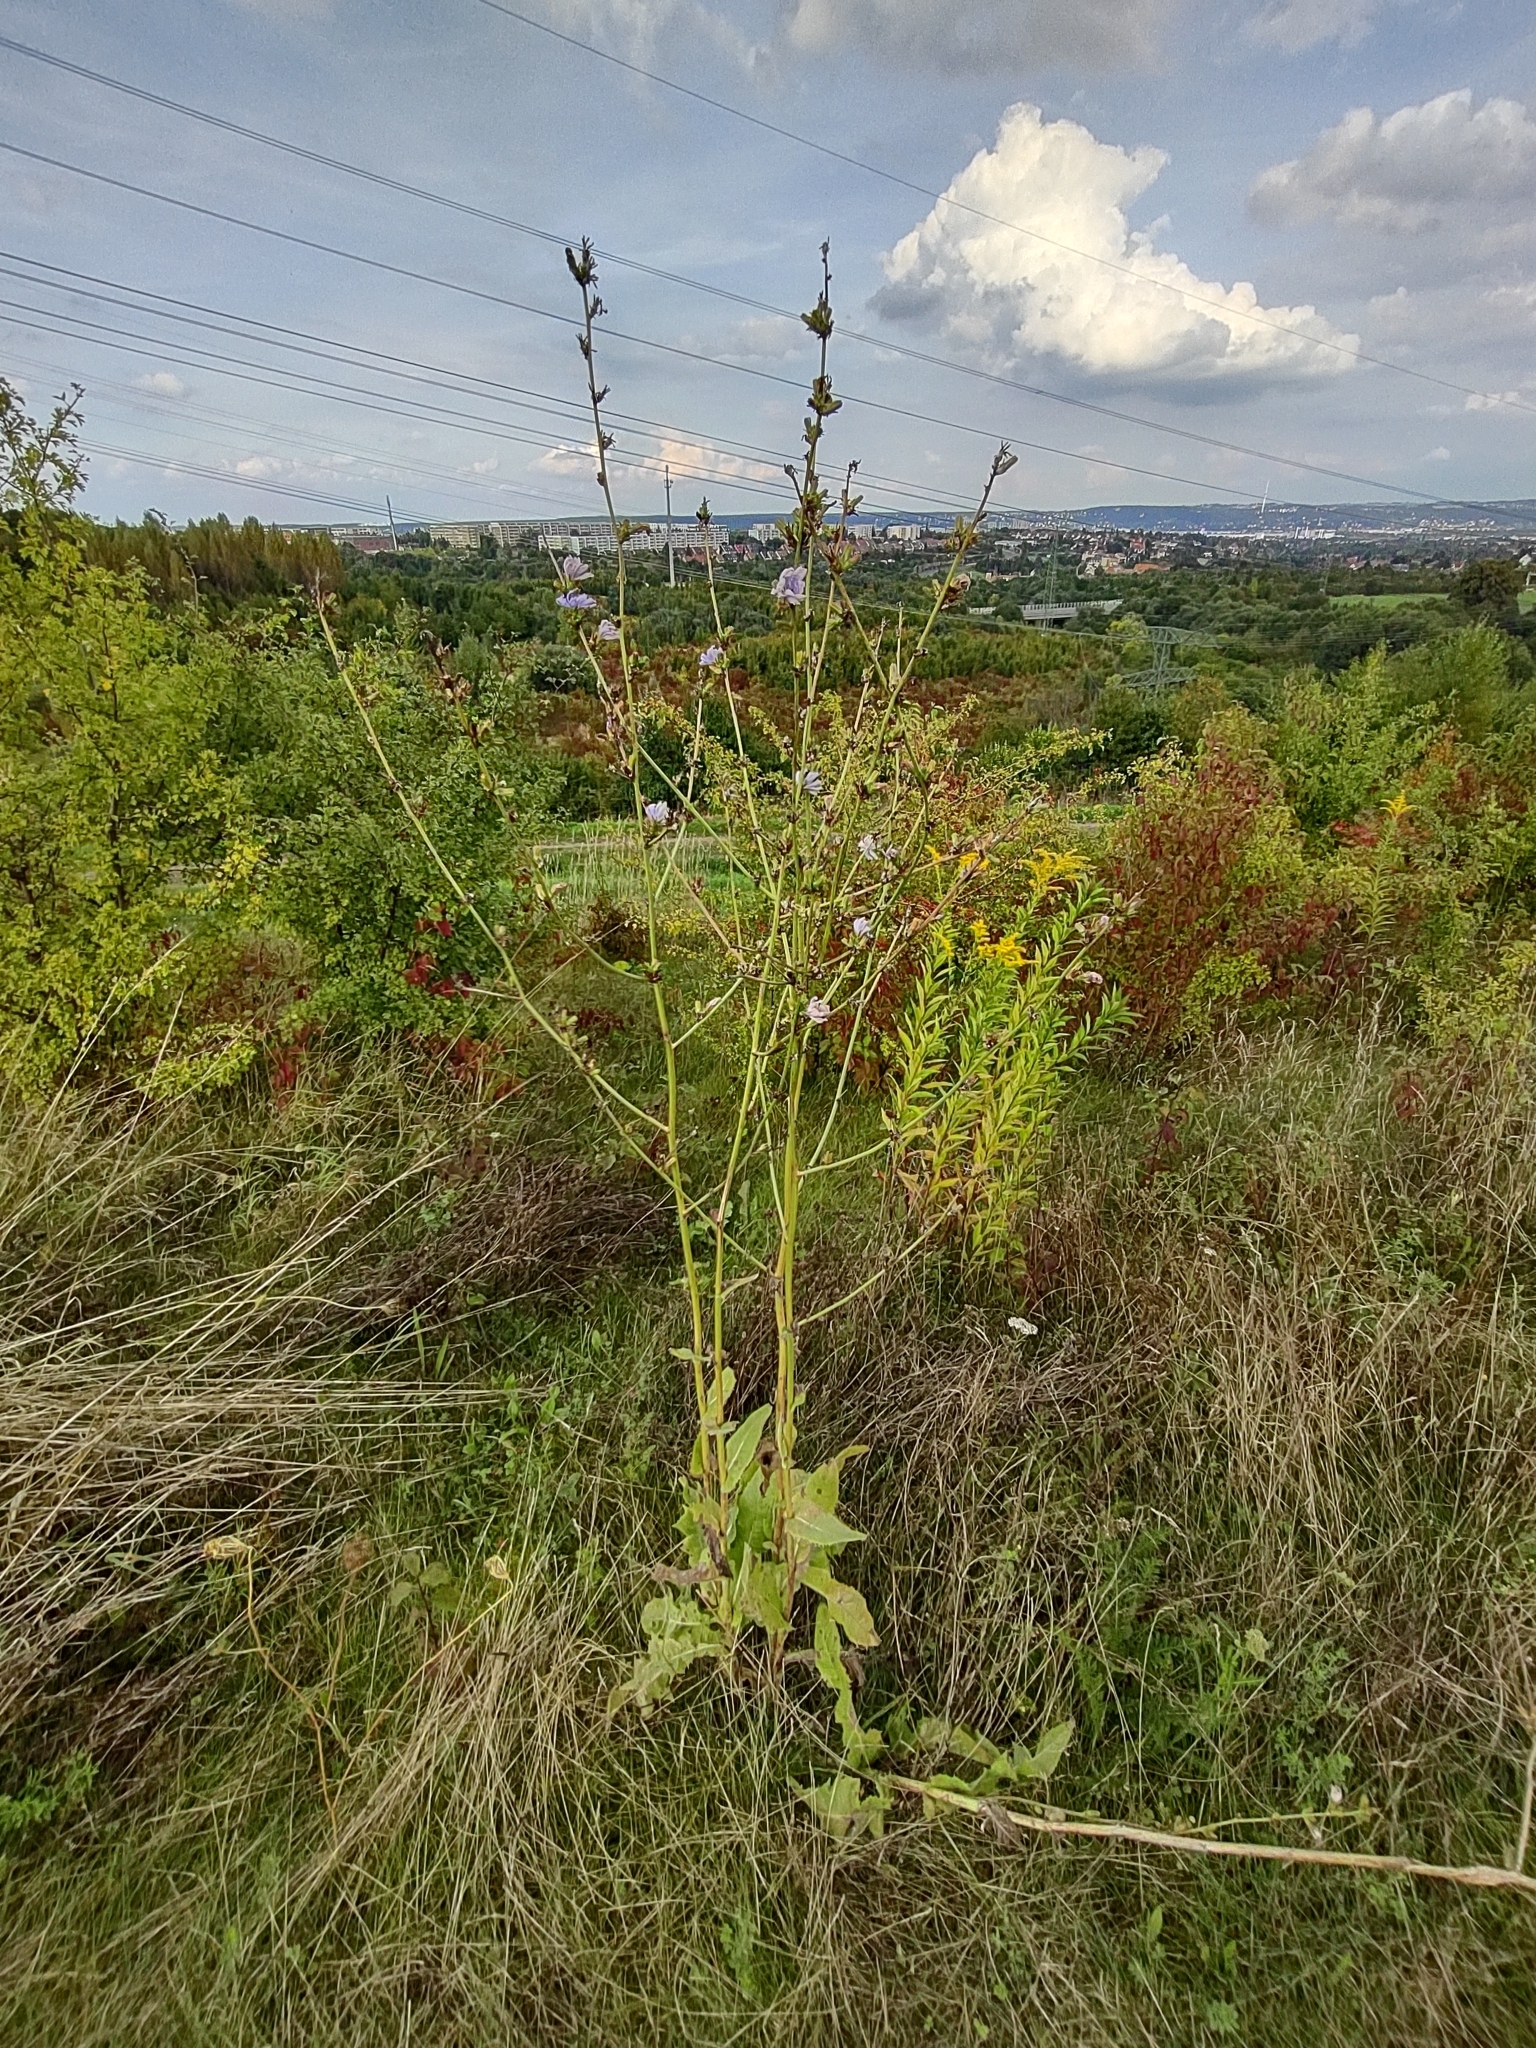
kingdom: Plantae
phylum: Tracheophyta
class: Magnoliopsida
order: Asterales
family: Asteraceae
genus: Cichorium
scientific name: Cichorium intybus
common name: Chicory
